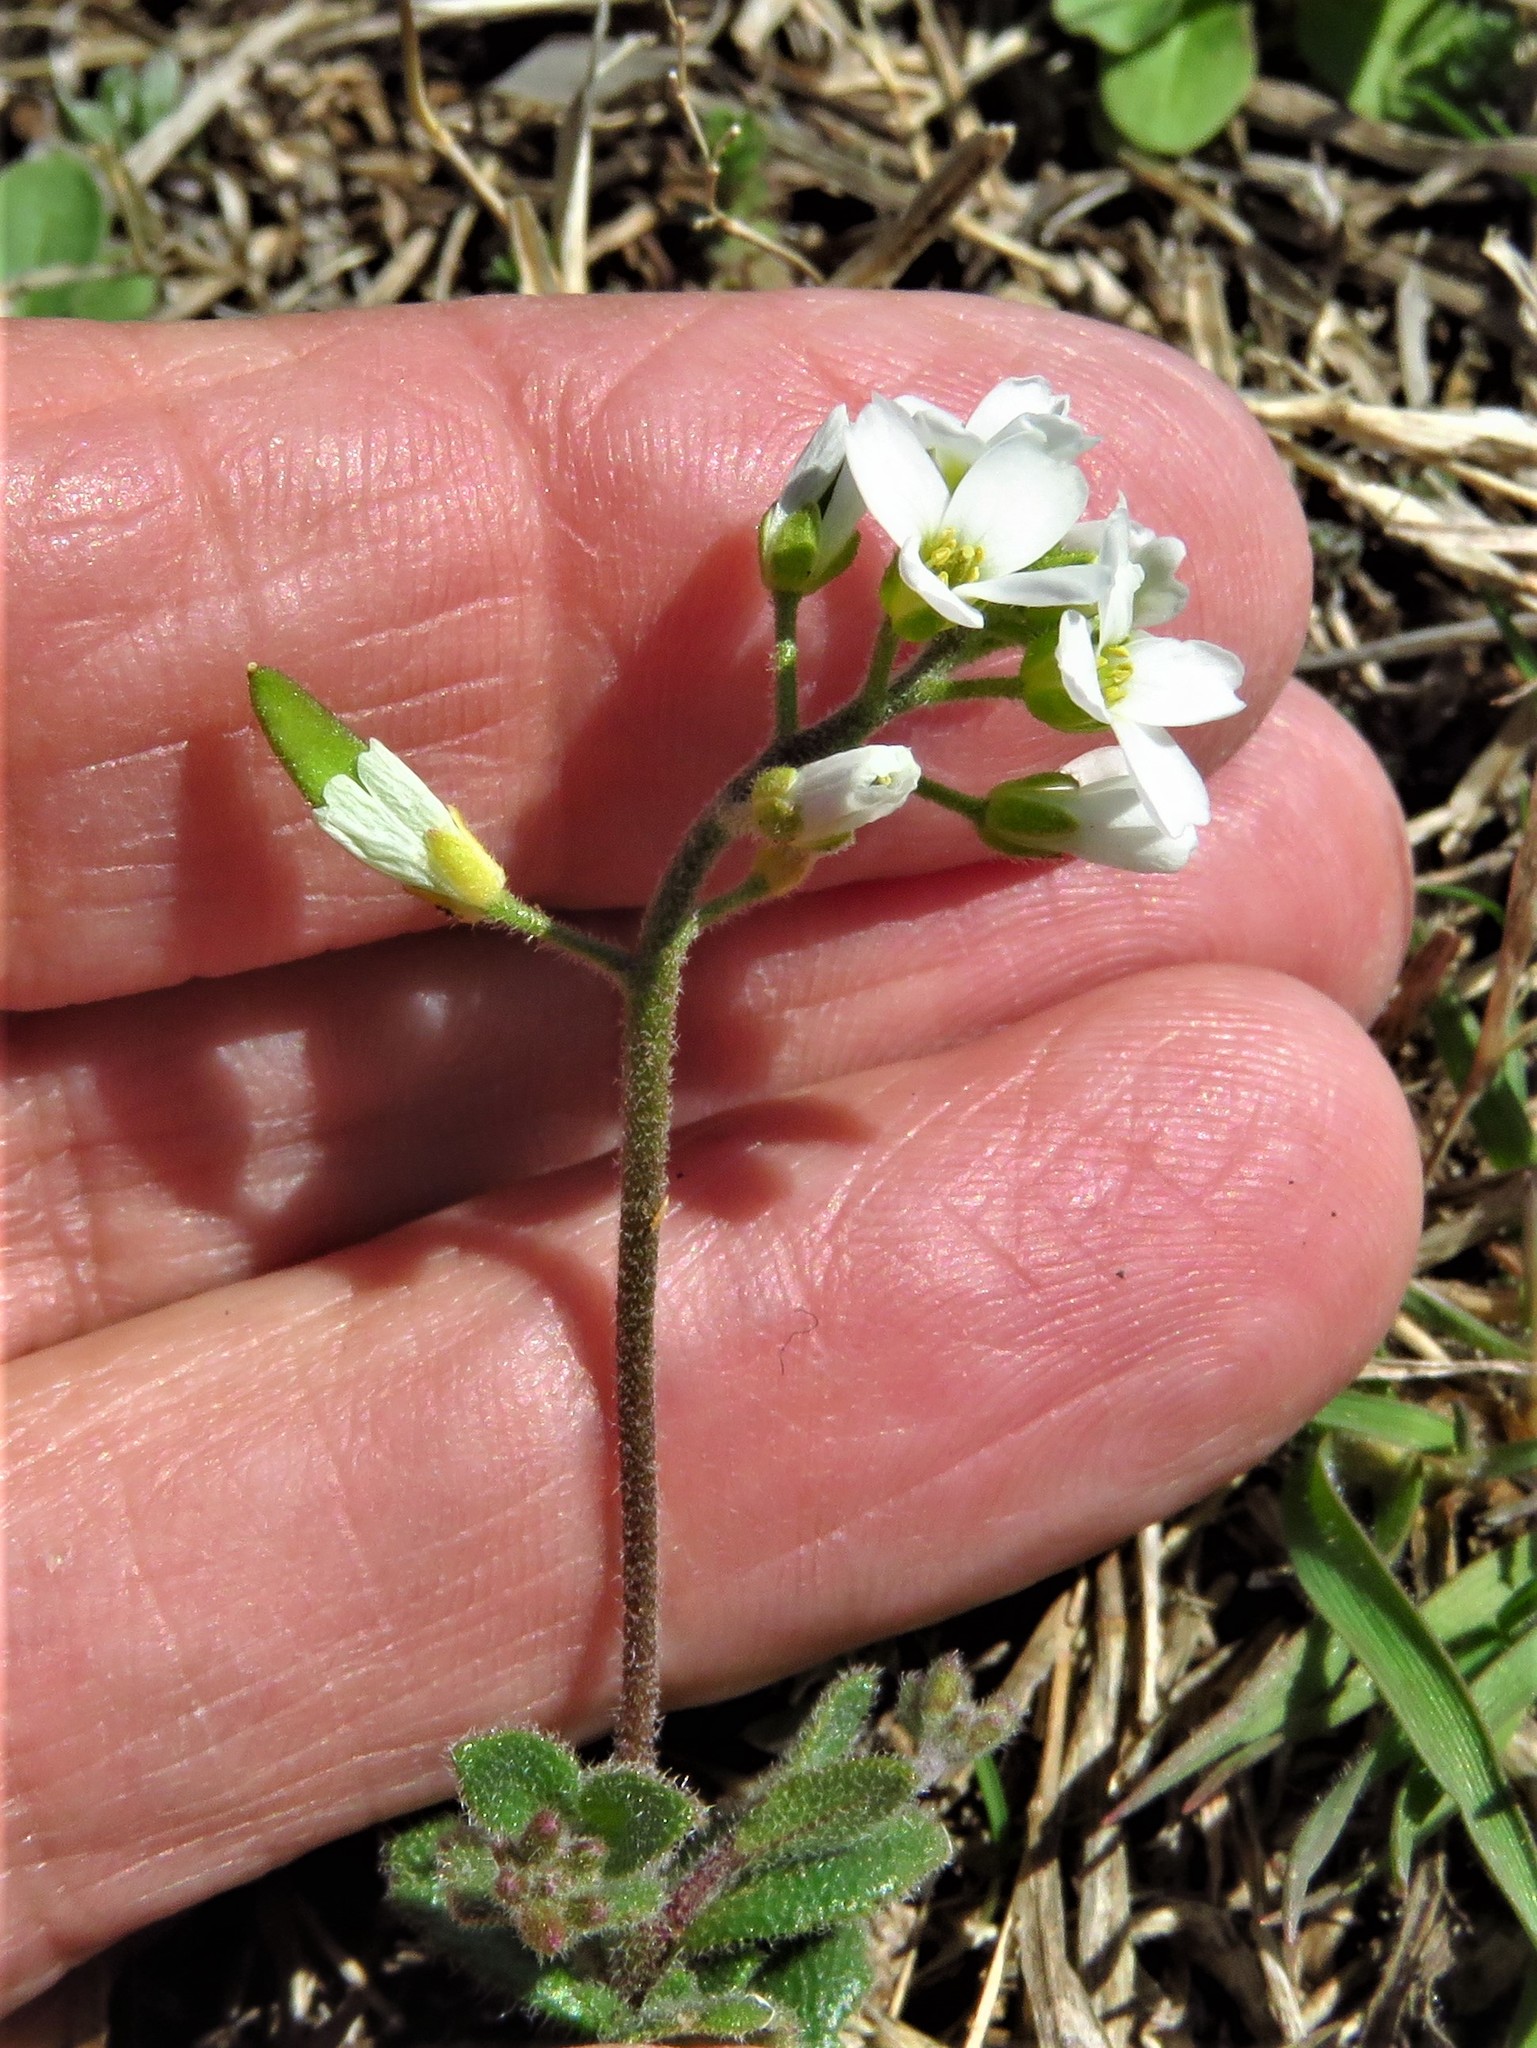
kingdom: Plantae
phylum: Tracheophyta
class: Magnoliopsida
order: Brassicales
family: Brassicaceae
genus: Tomostima
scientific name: Tomostima cuneifolia
